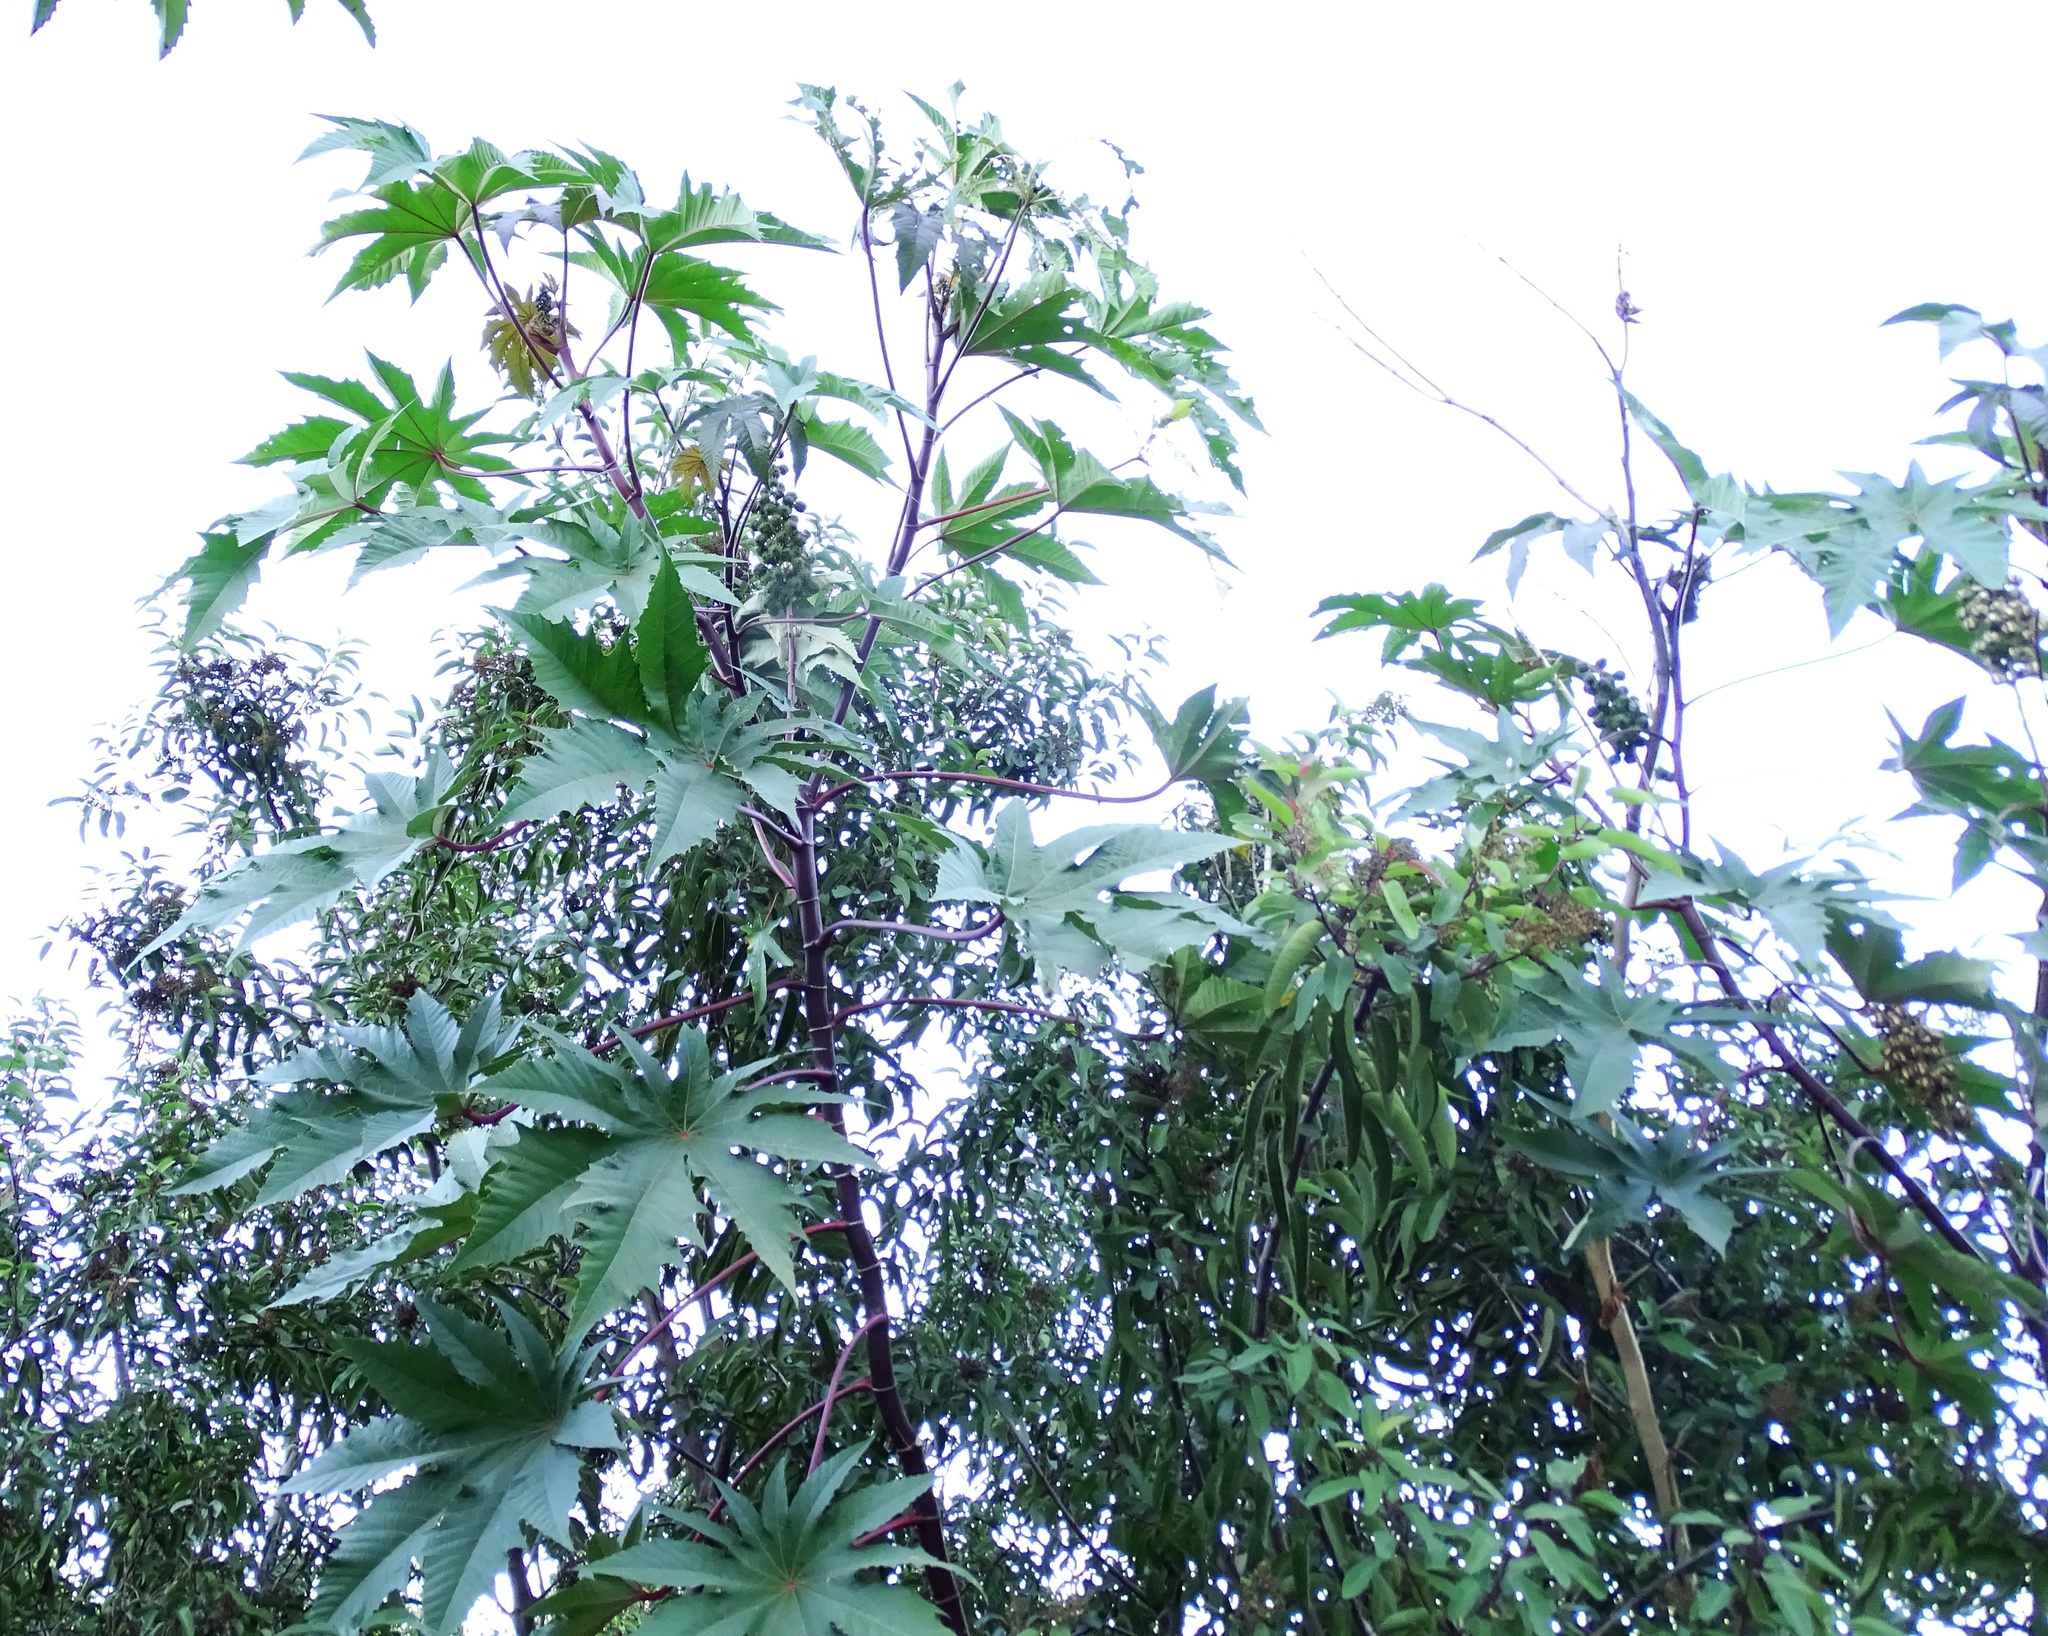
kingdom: Plantae
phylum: Tracheophyta
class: Magnoliopsida
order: Malpighiales
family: Euphorbiaceae
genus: Ricinus
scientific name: Ricinus communis
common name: Castor-oil-plant
